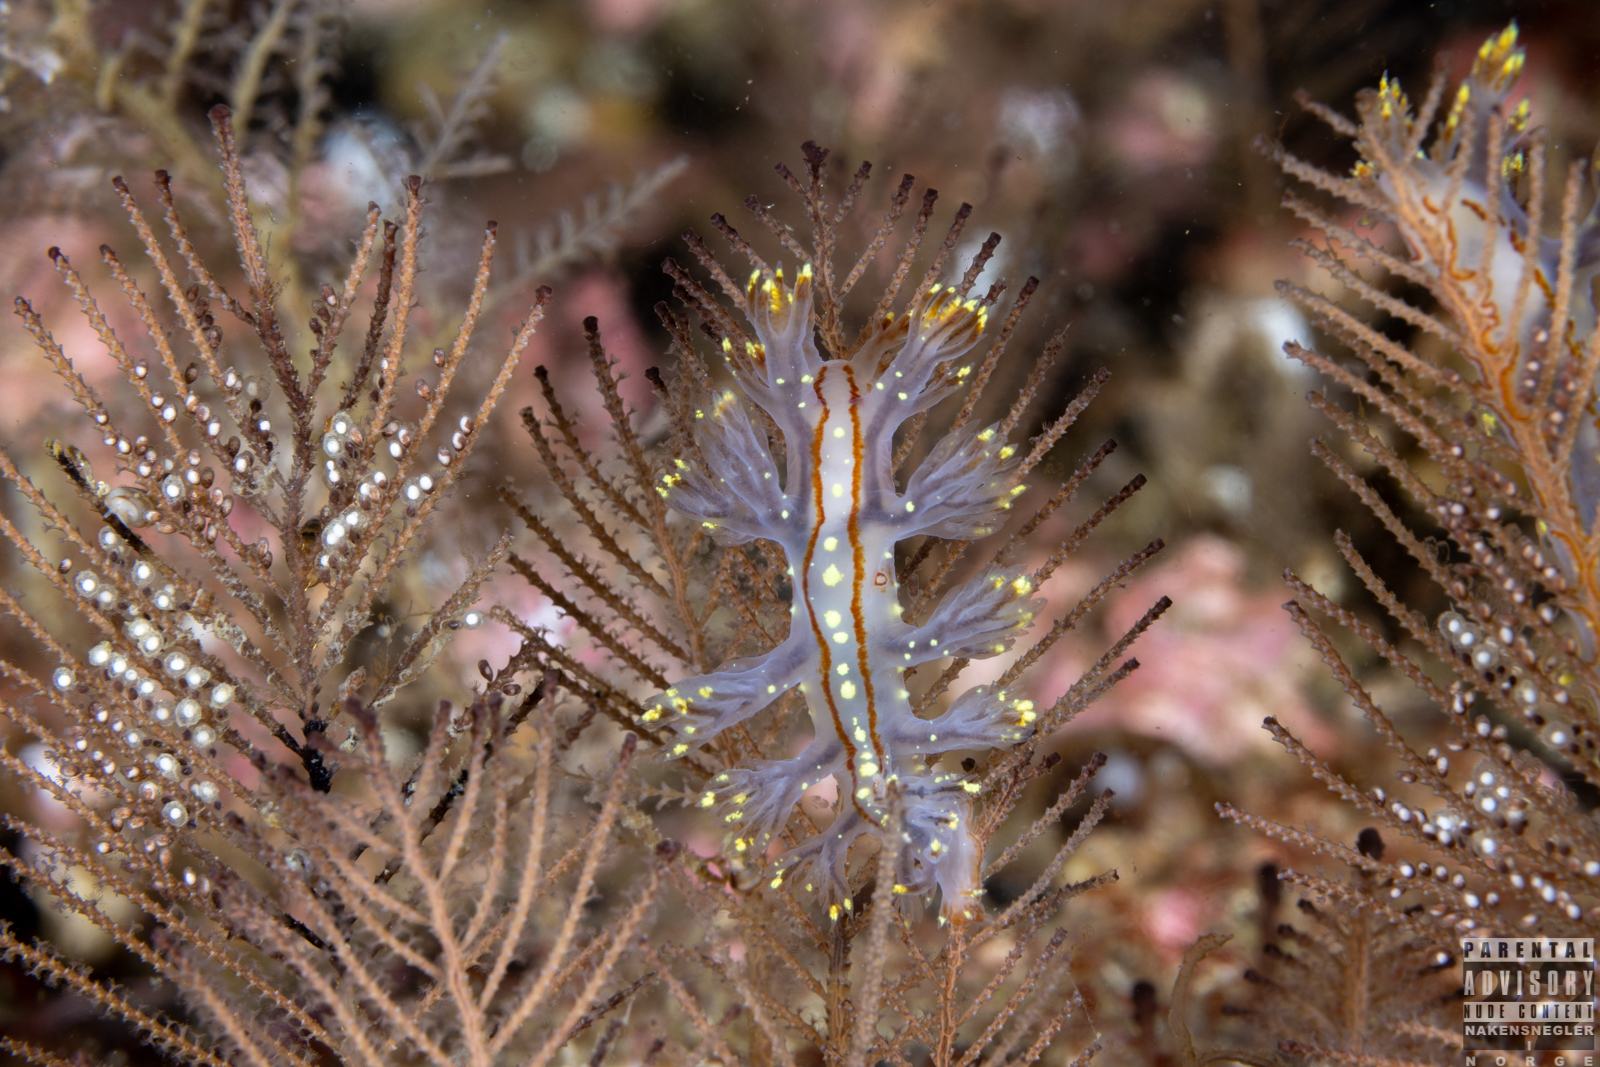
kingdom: Animalia
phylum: Mollusca
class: Gastropoda
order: Nudibranchia
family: Dendronotidae
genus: Dendronotus
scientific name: Dendronotus yrjargul
